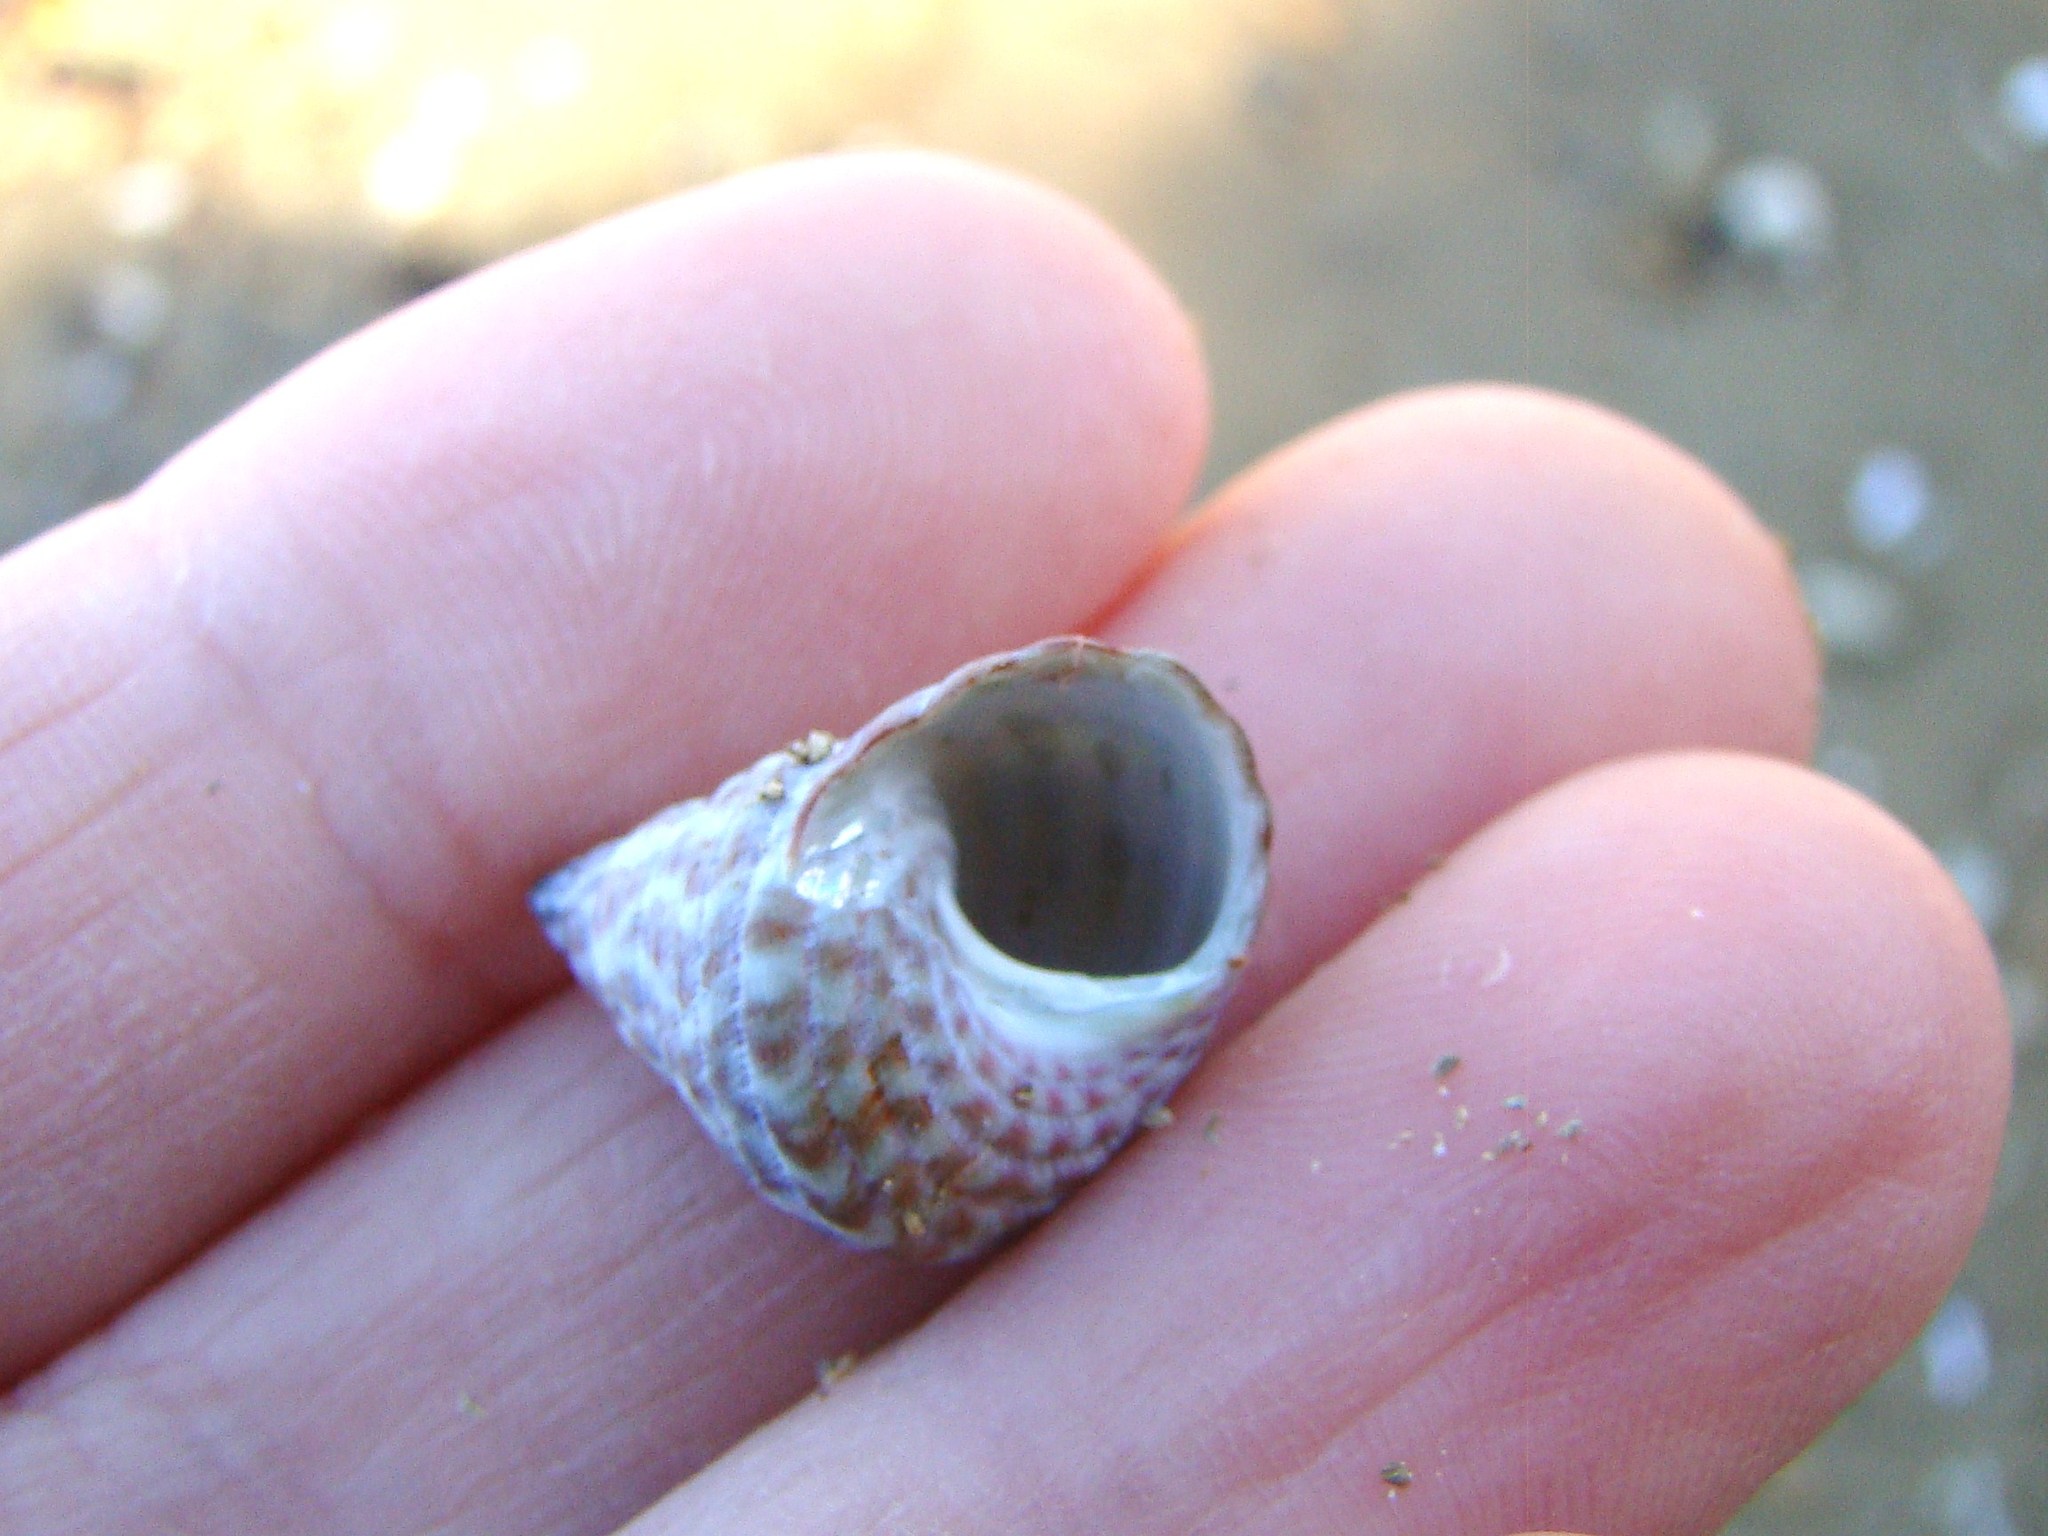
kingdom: Animalia
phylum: Mollusca
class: Gastropoda
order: Trochida
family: Trochidae
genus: Micrelenchus
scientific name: Micrelenchus purpureus
